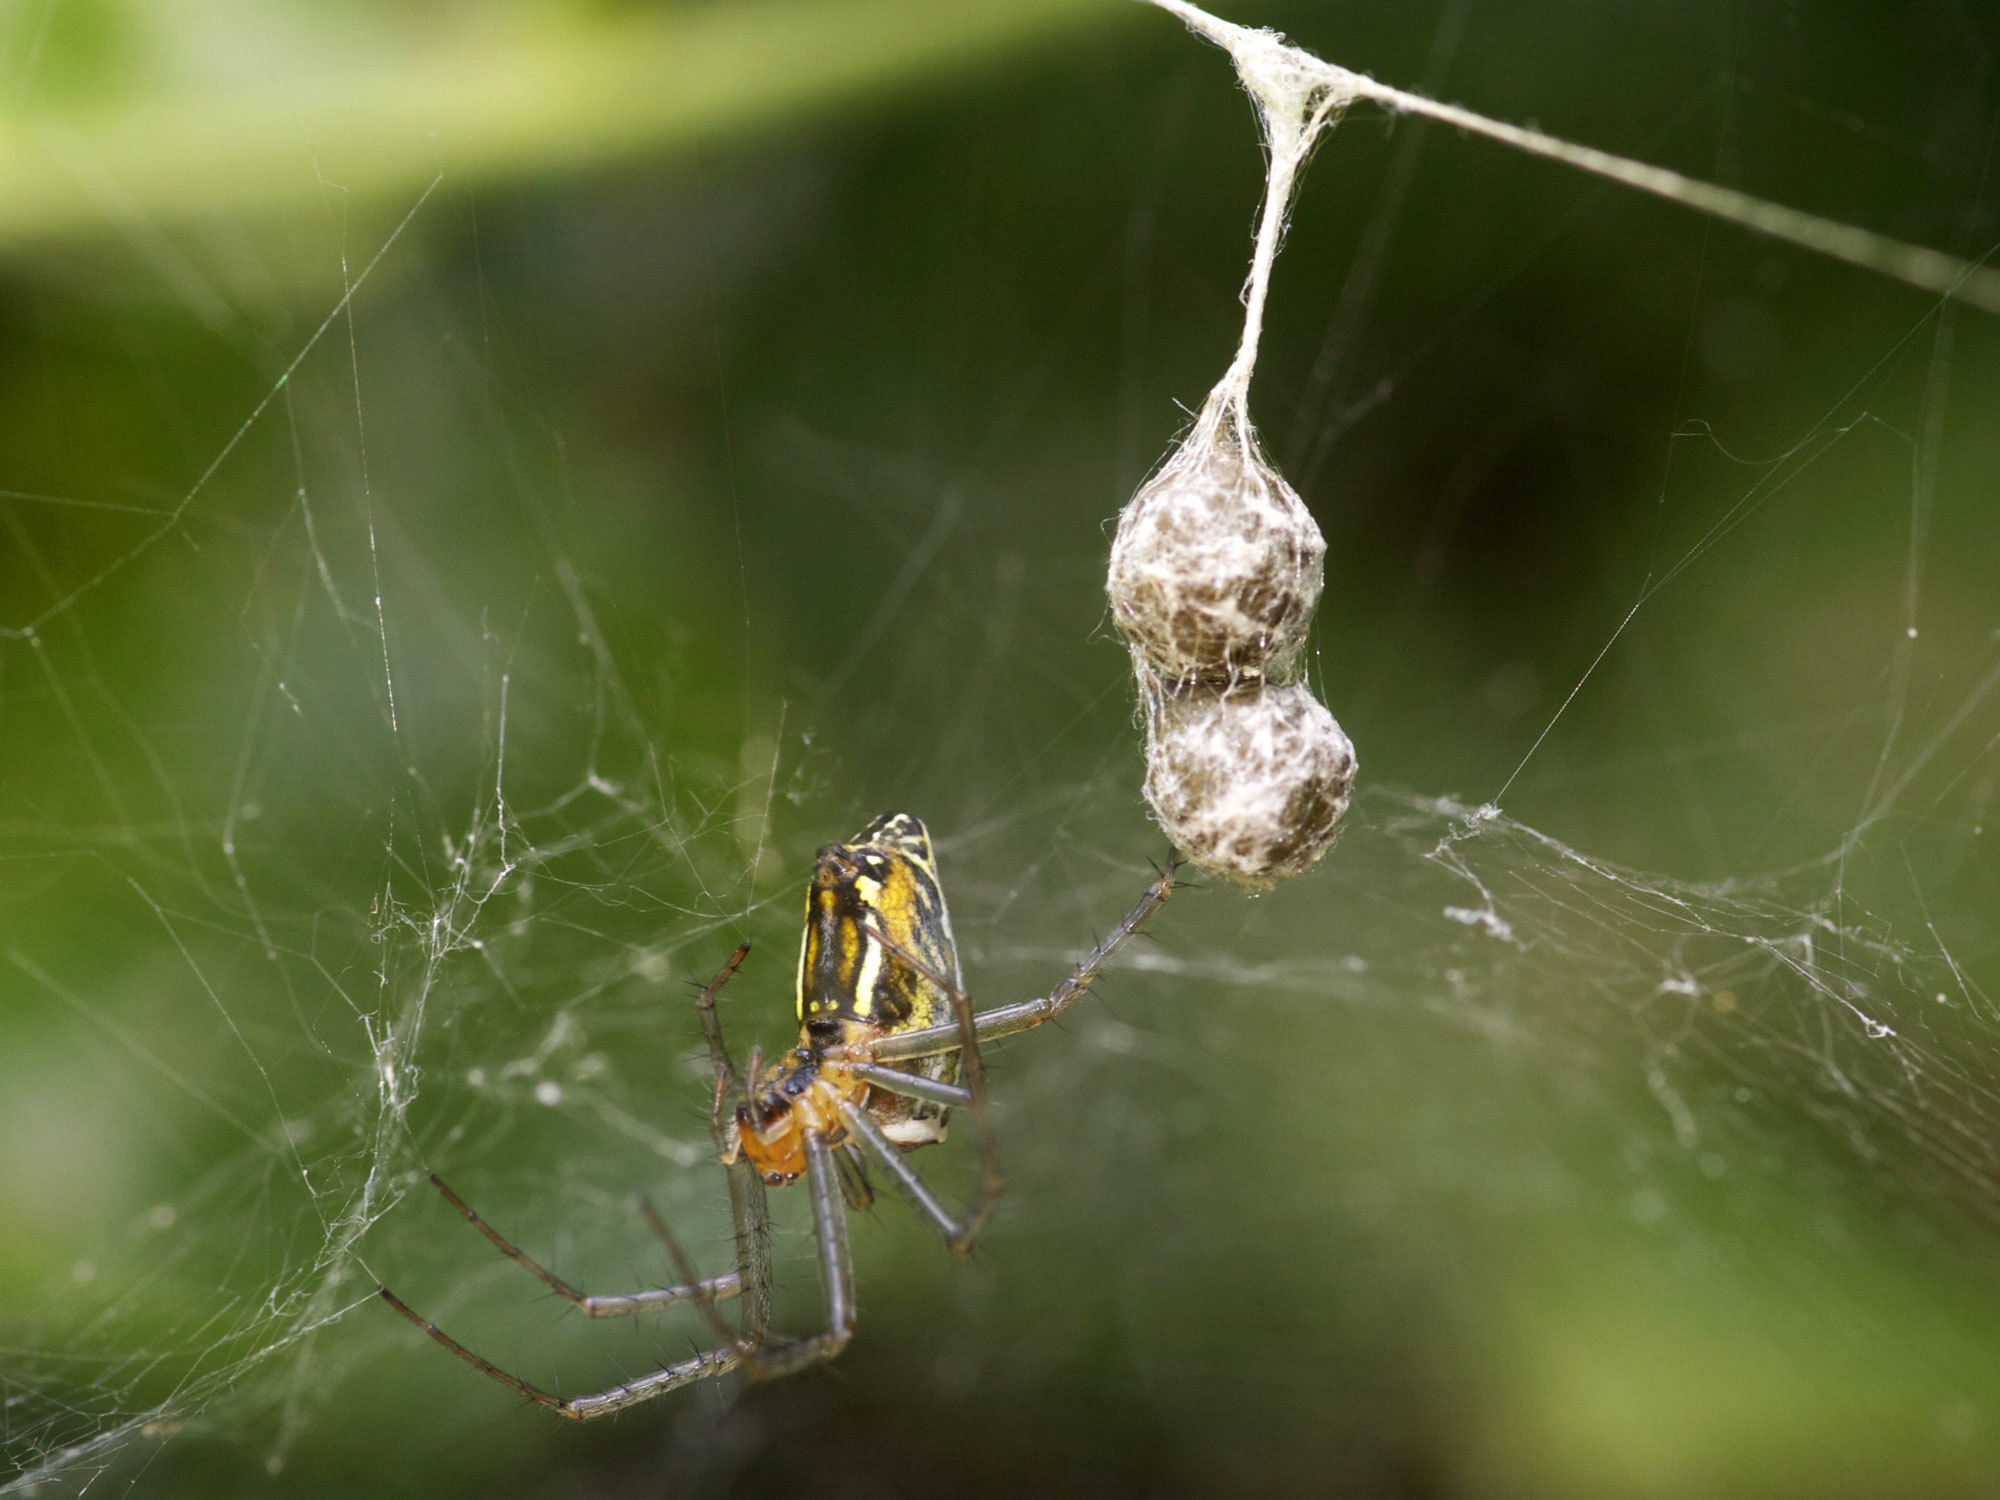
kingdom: Animalia
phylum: Arthropoda
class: Arachnida
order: Araneae
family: Araneidae
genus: Mecynogea
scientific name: Mecynogea lemniscata
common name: Orb weavers
